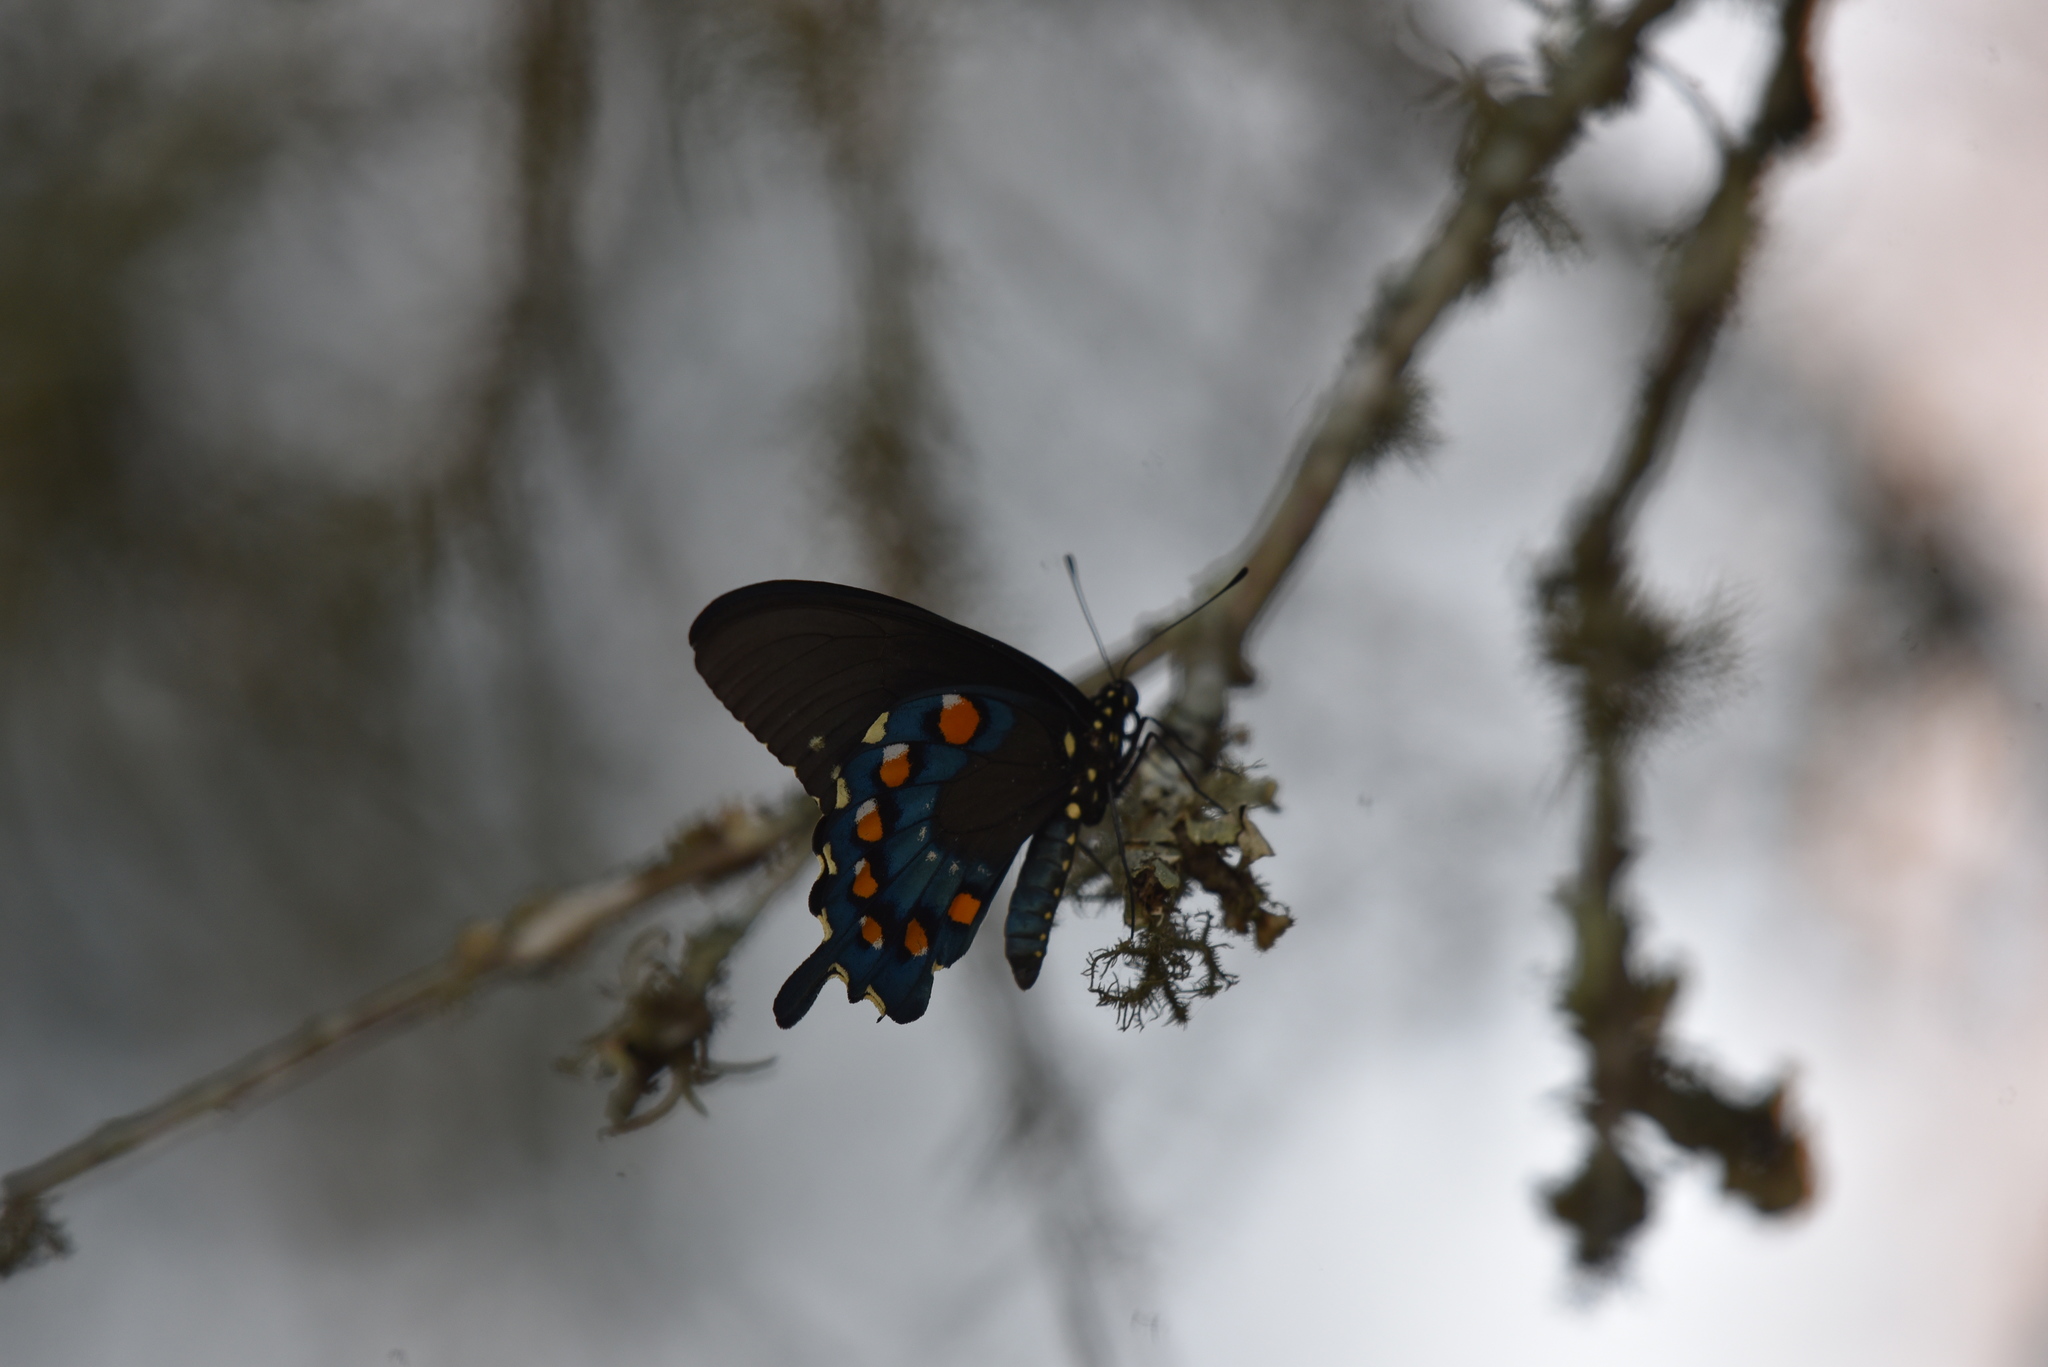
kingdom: Animalia
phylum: Arthropoda
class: Insecta
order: Lepidoptera
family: Papilionidae
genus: Battus
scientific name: Battus philenor
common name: Pipevine swallowtail
